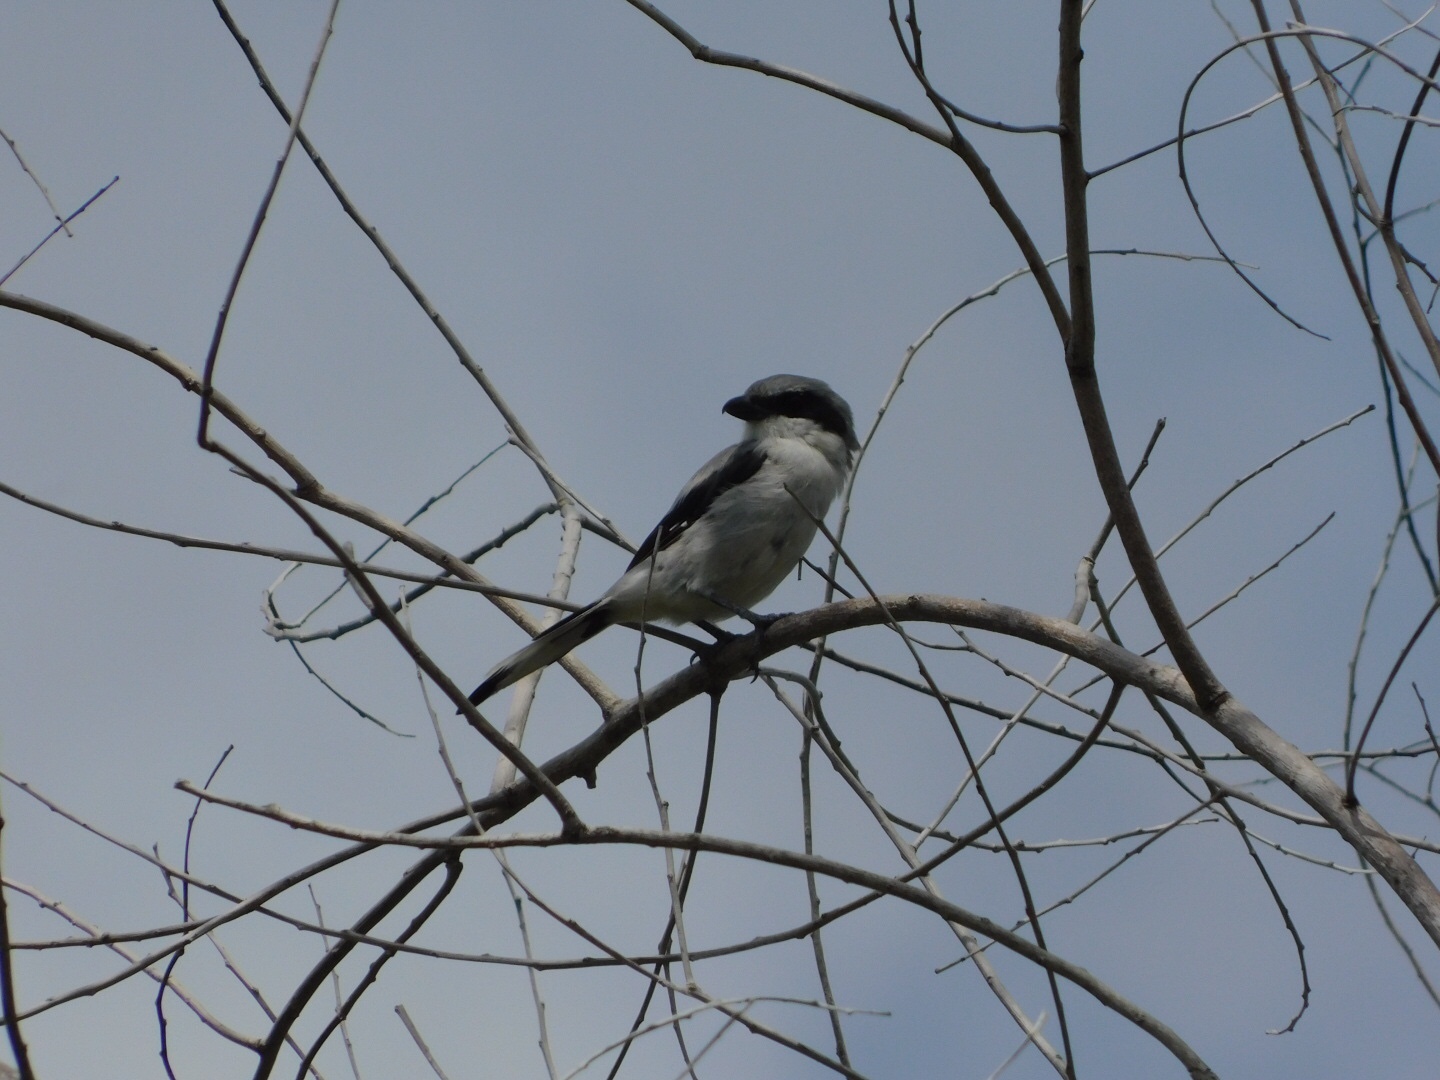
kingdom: Animalia
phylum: Chordata
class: Aves
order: Passeriformes
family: Laniidae
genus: Lanius
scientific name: Lanius ludovicianus
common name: Loggerhead shrike
